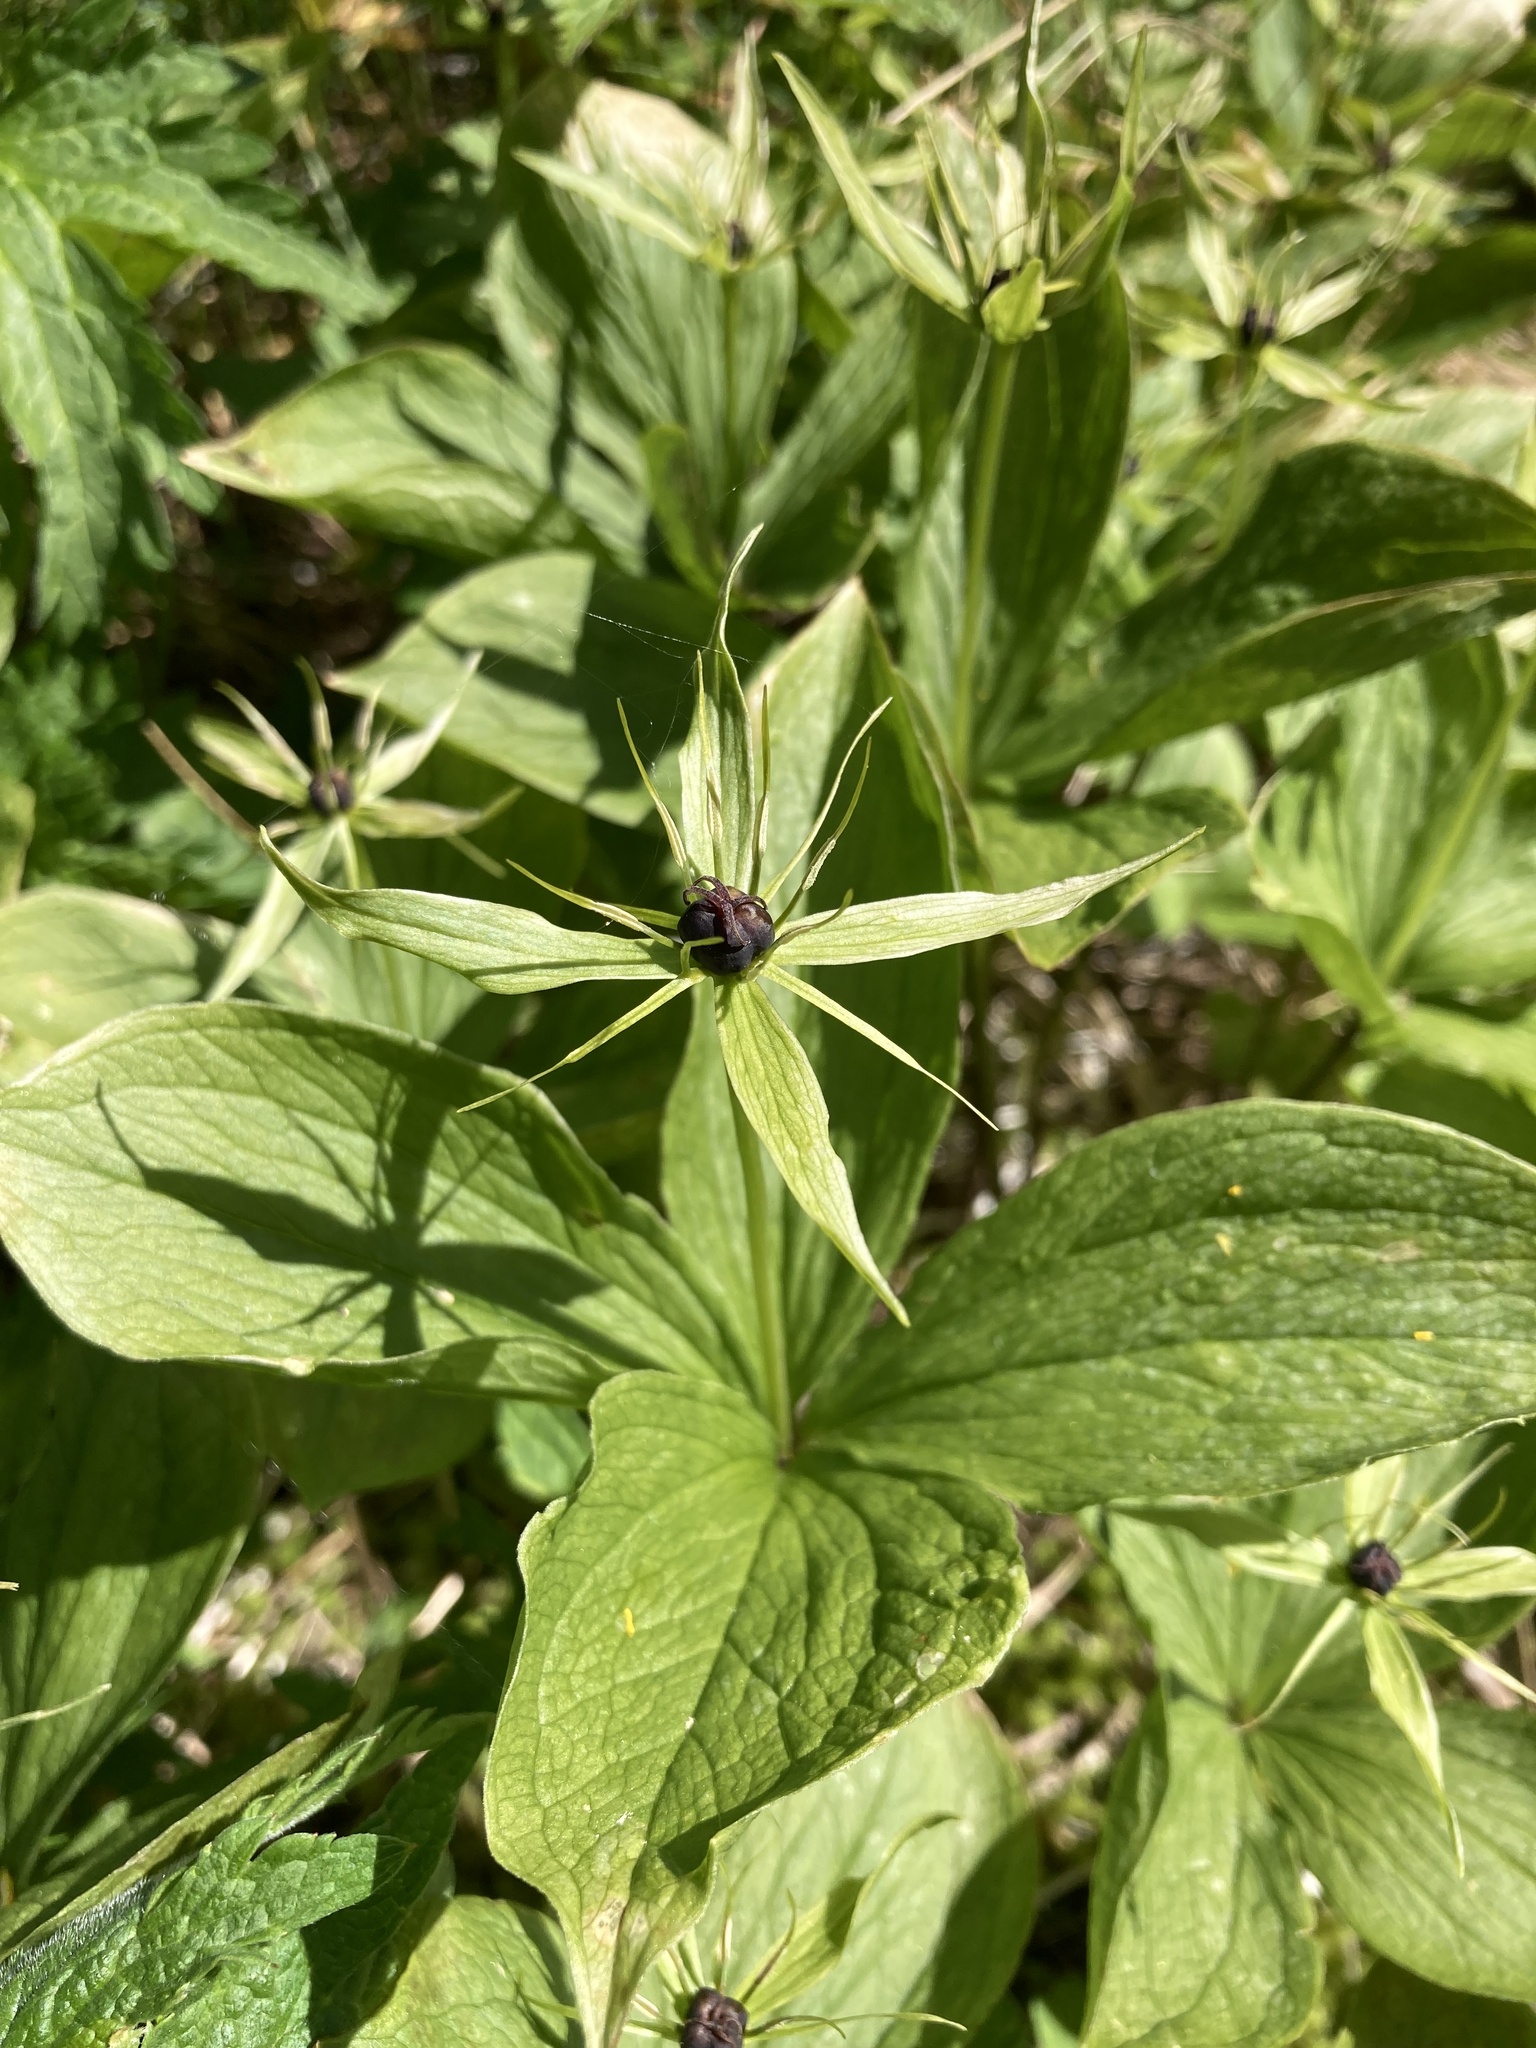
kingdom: Plantae
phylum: Tracheophyta
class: Liliopsida
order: Liliales
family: Melanthiaceae
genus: Paris
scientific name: Paris quadrifolia
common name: Herb-paris
